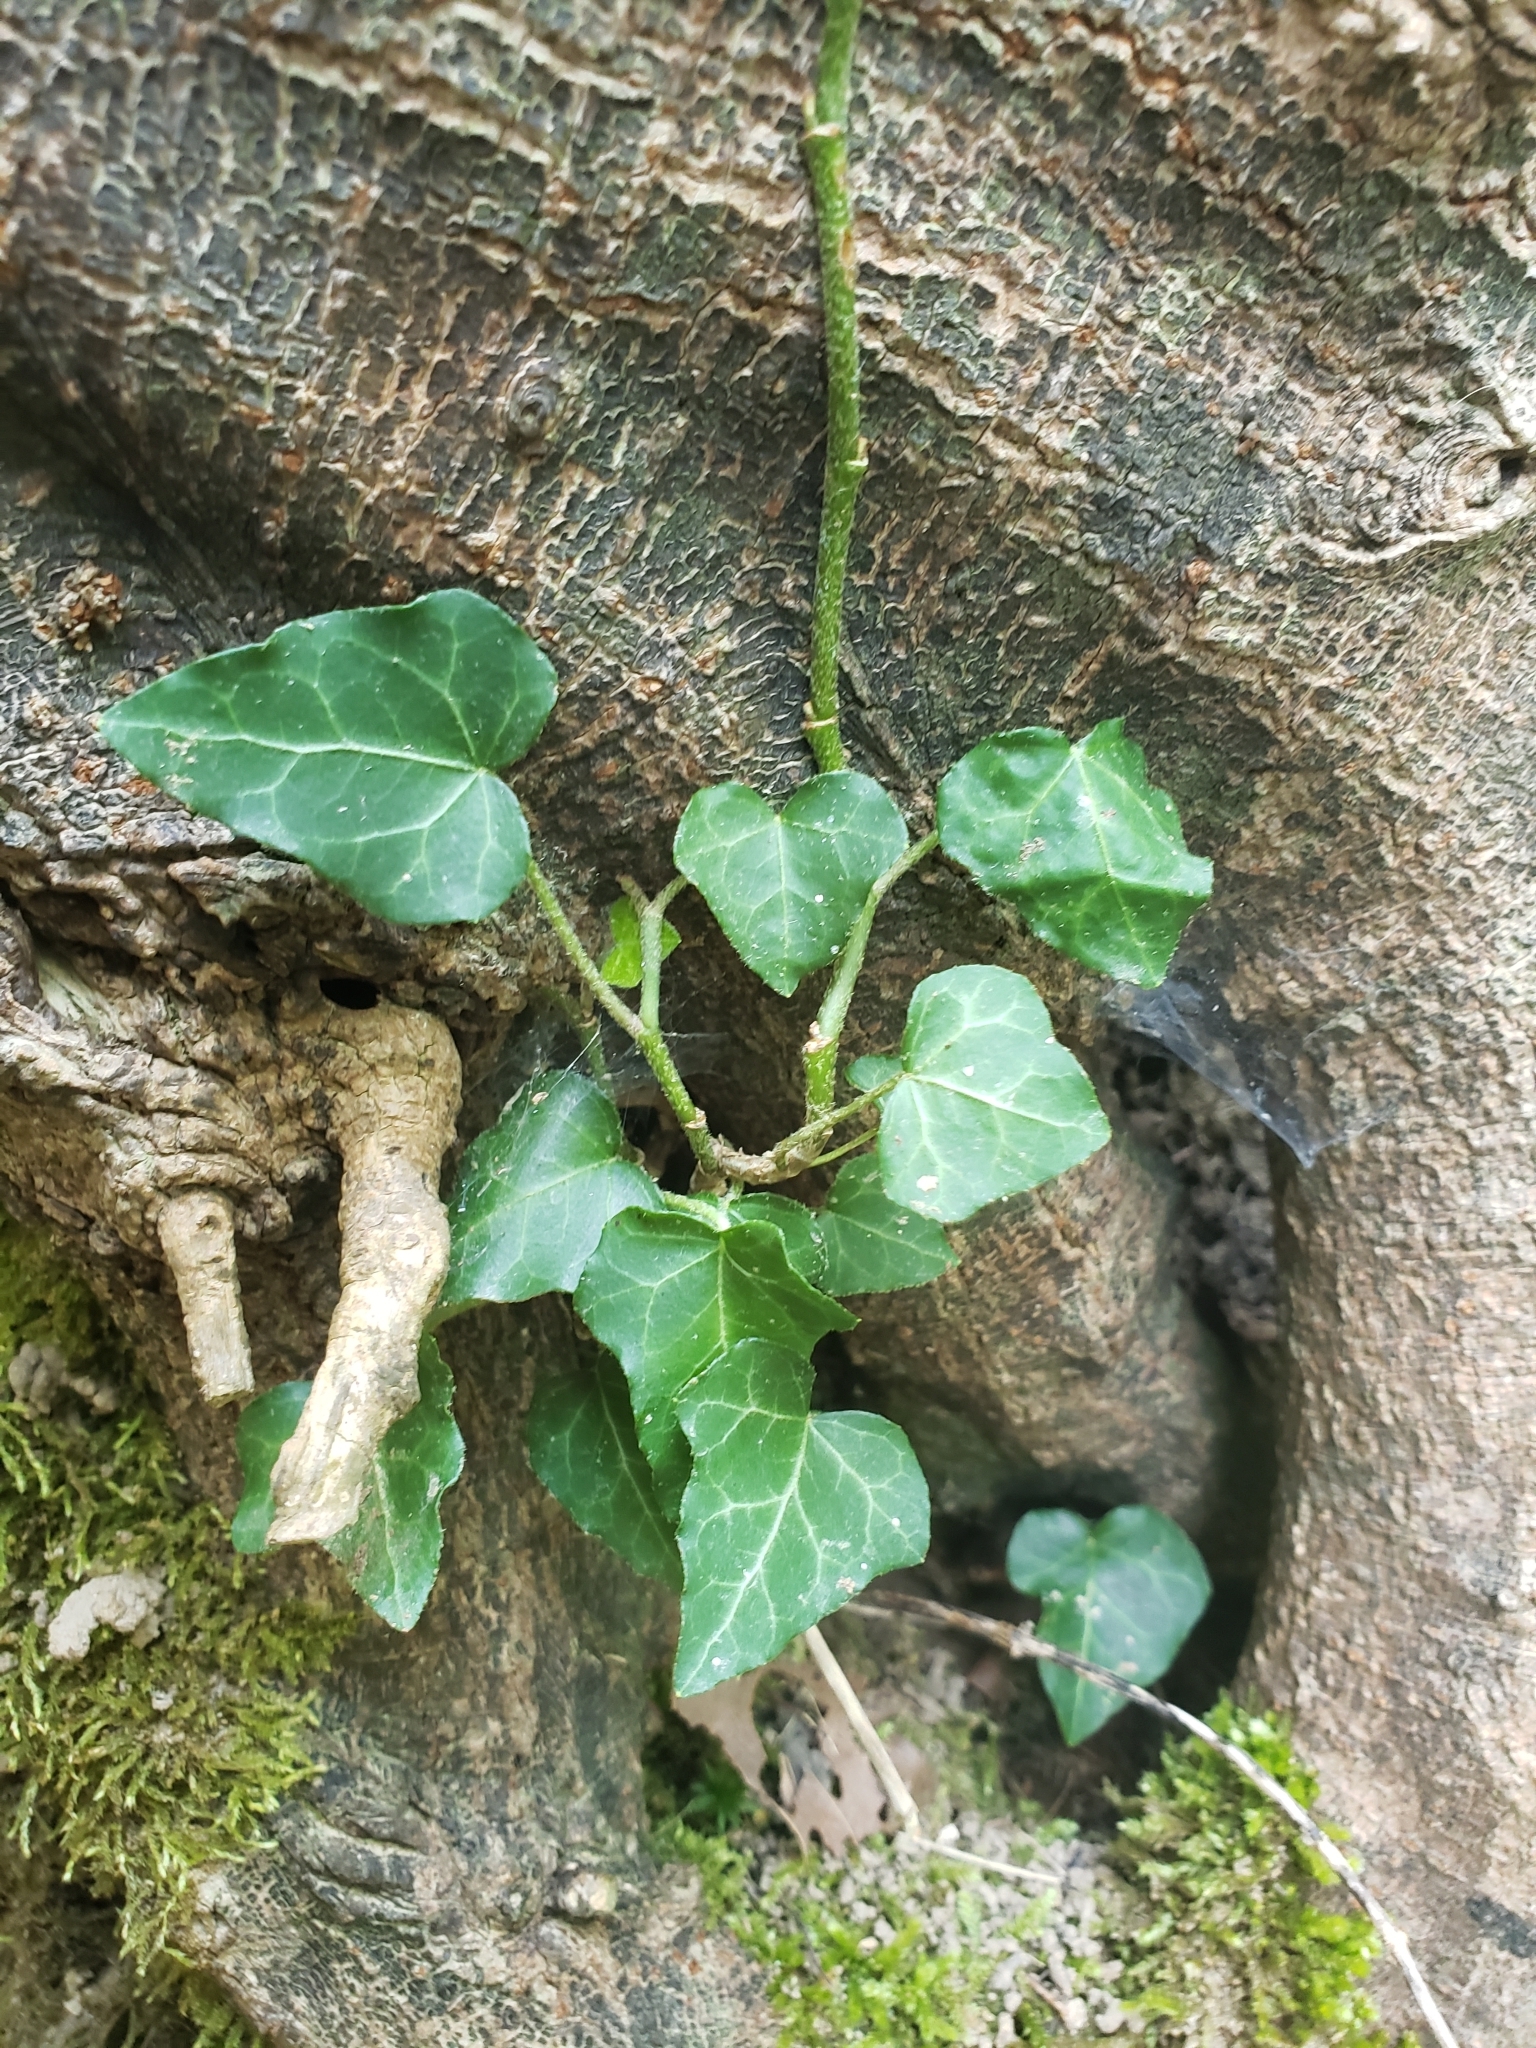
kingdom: Plantae
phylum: Tracheophyta
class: Magnoliopsida
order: Apiales
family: Araliaceae
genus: Hedera
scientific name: Hedera helix
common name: Ivy
